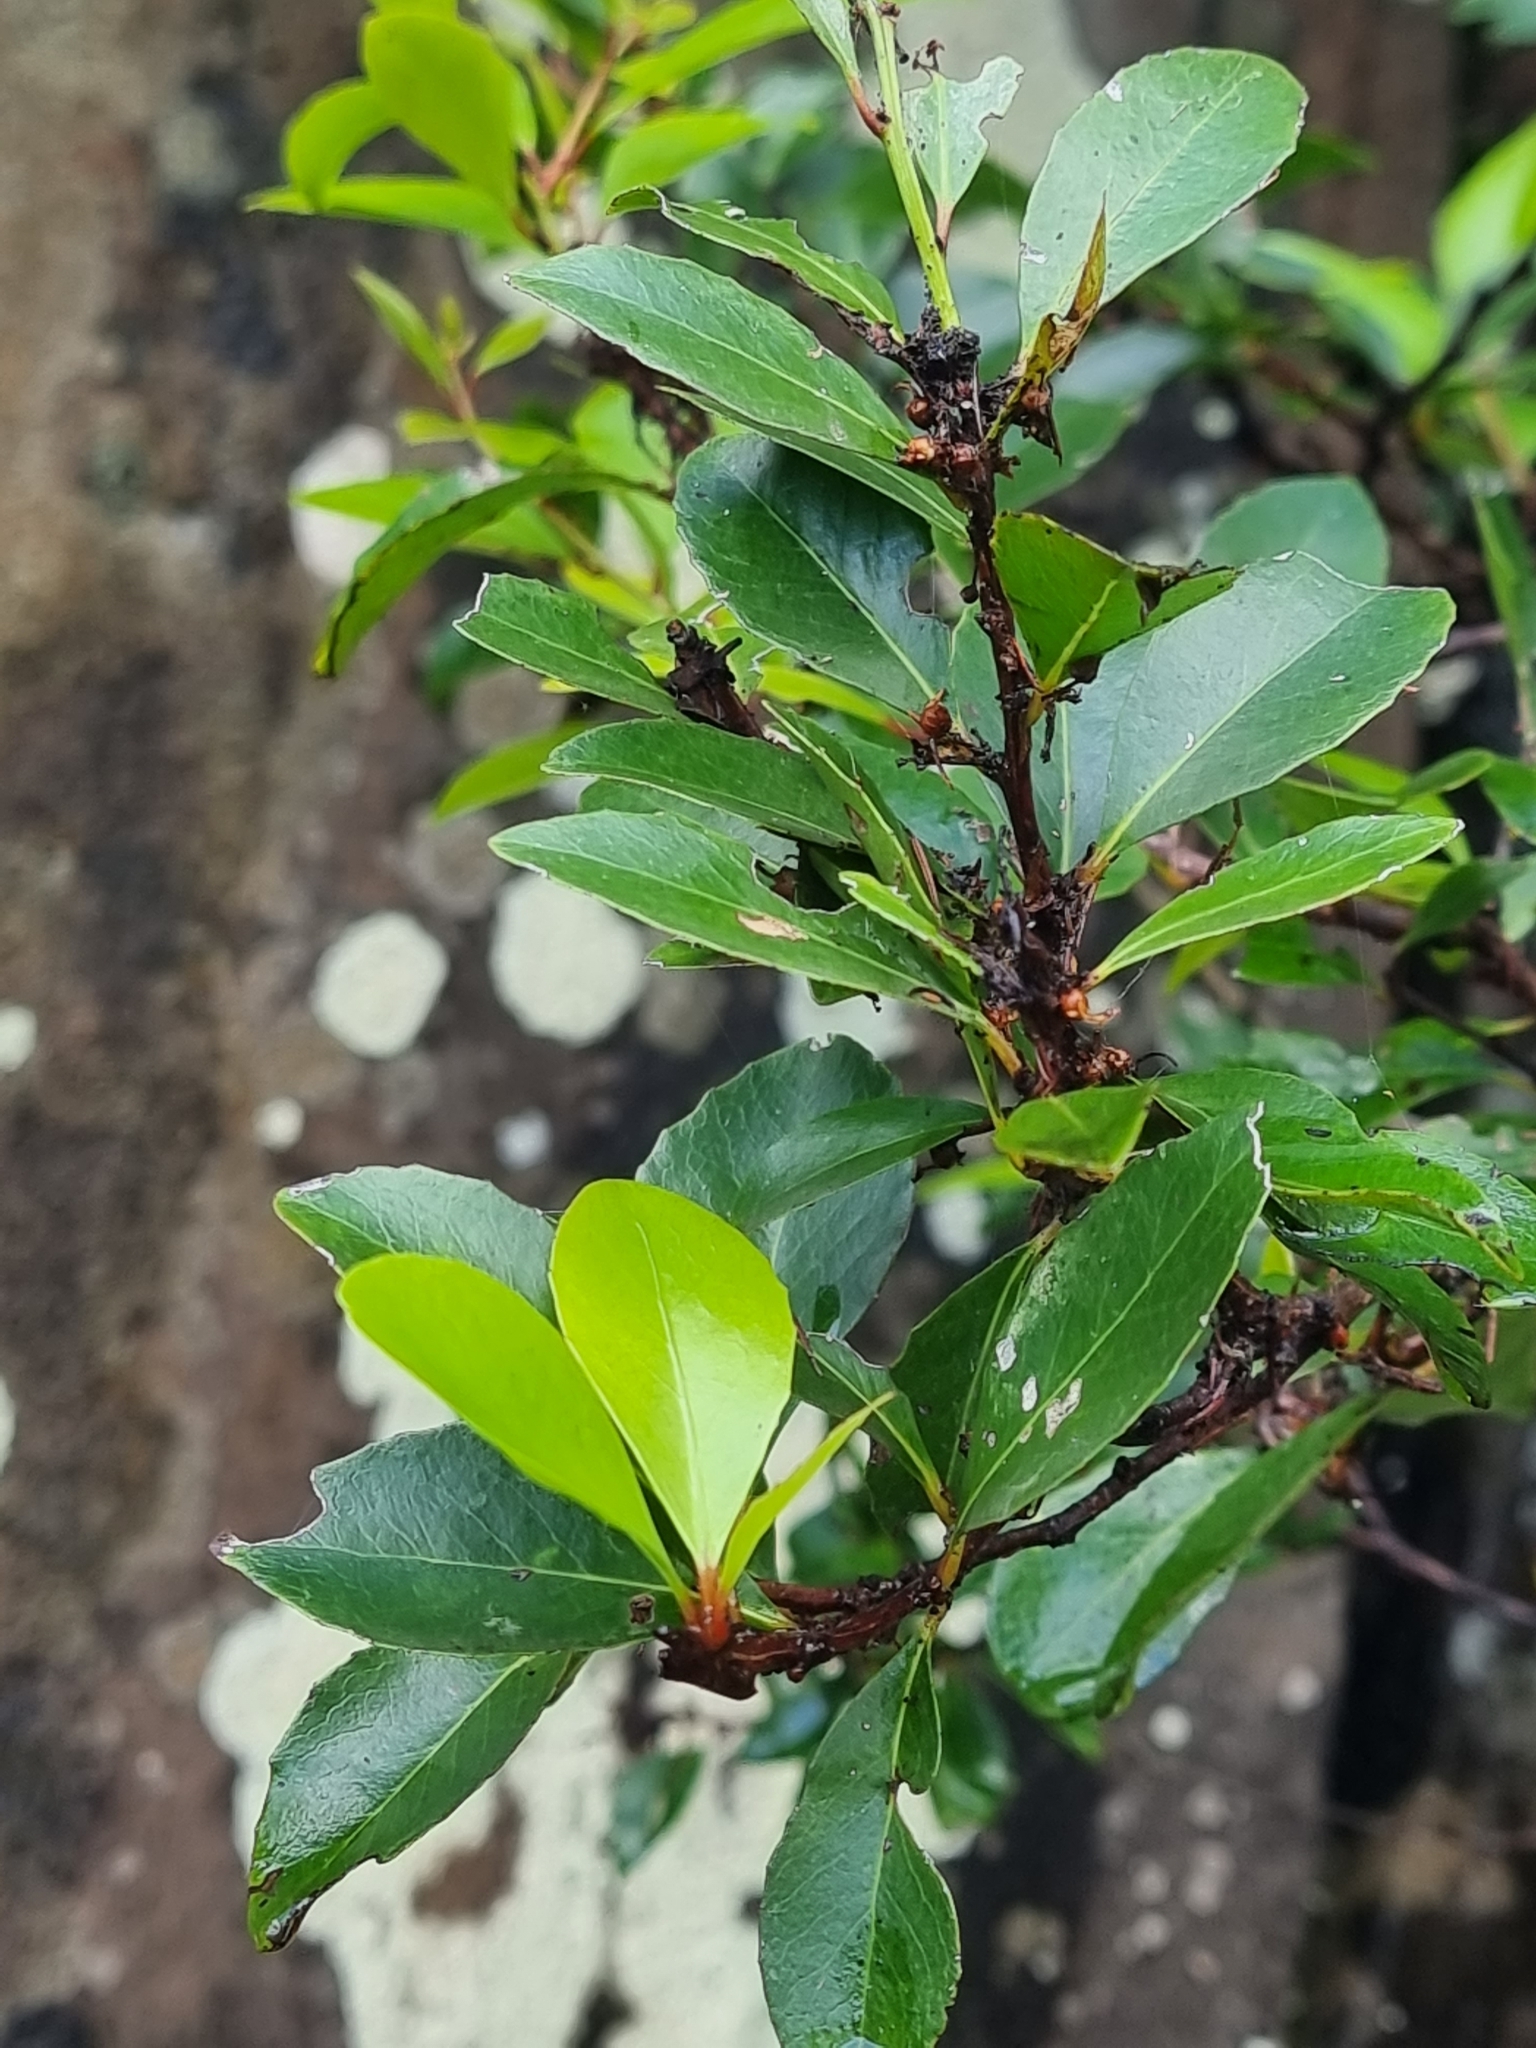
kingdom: Plantae
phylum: Tracheophyta
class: Magnoliopsida
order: Celastrales
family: Celastraceae
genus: Gymnosporia
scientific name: Gymnosporia dryandri
